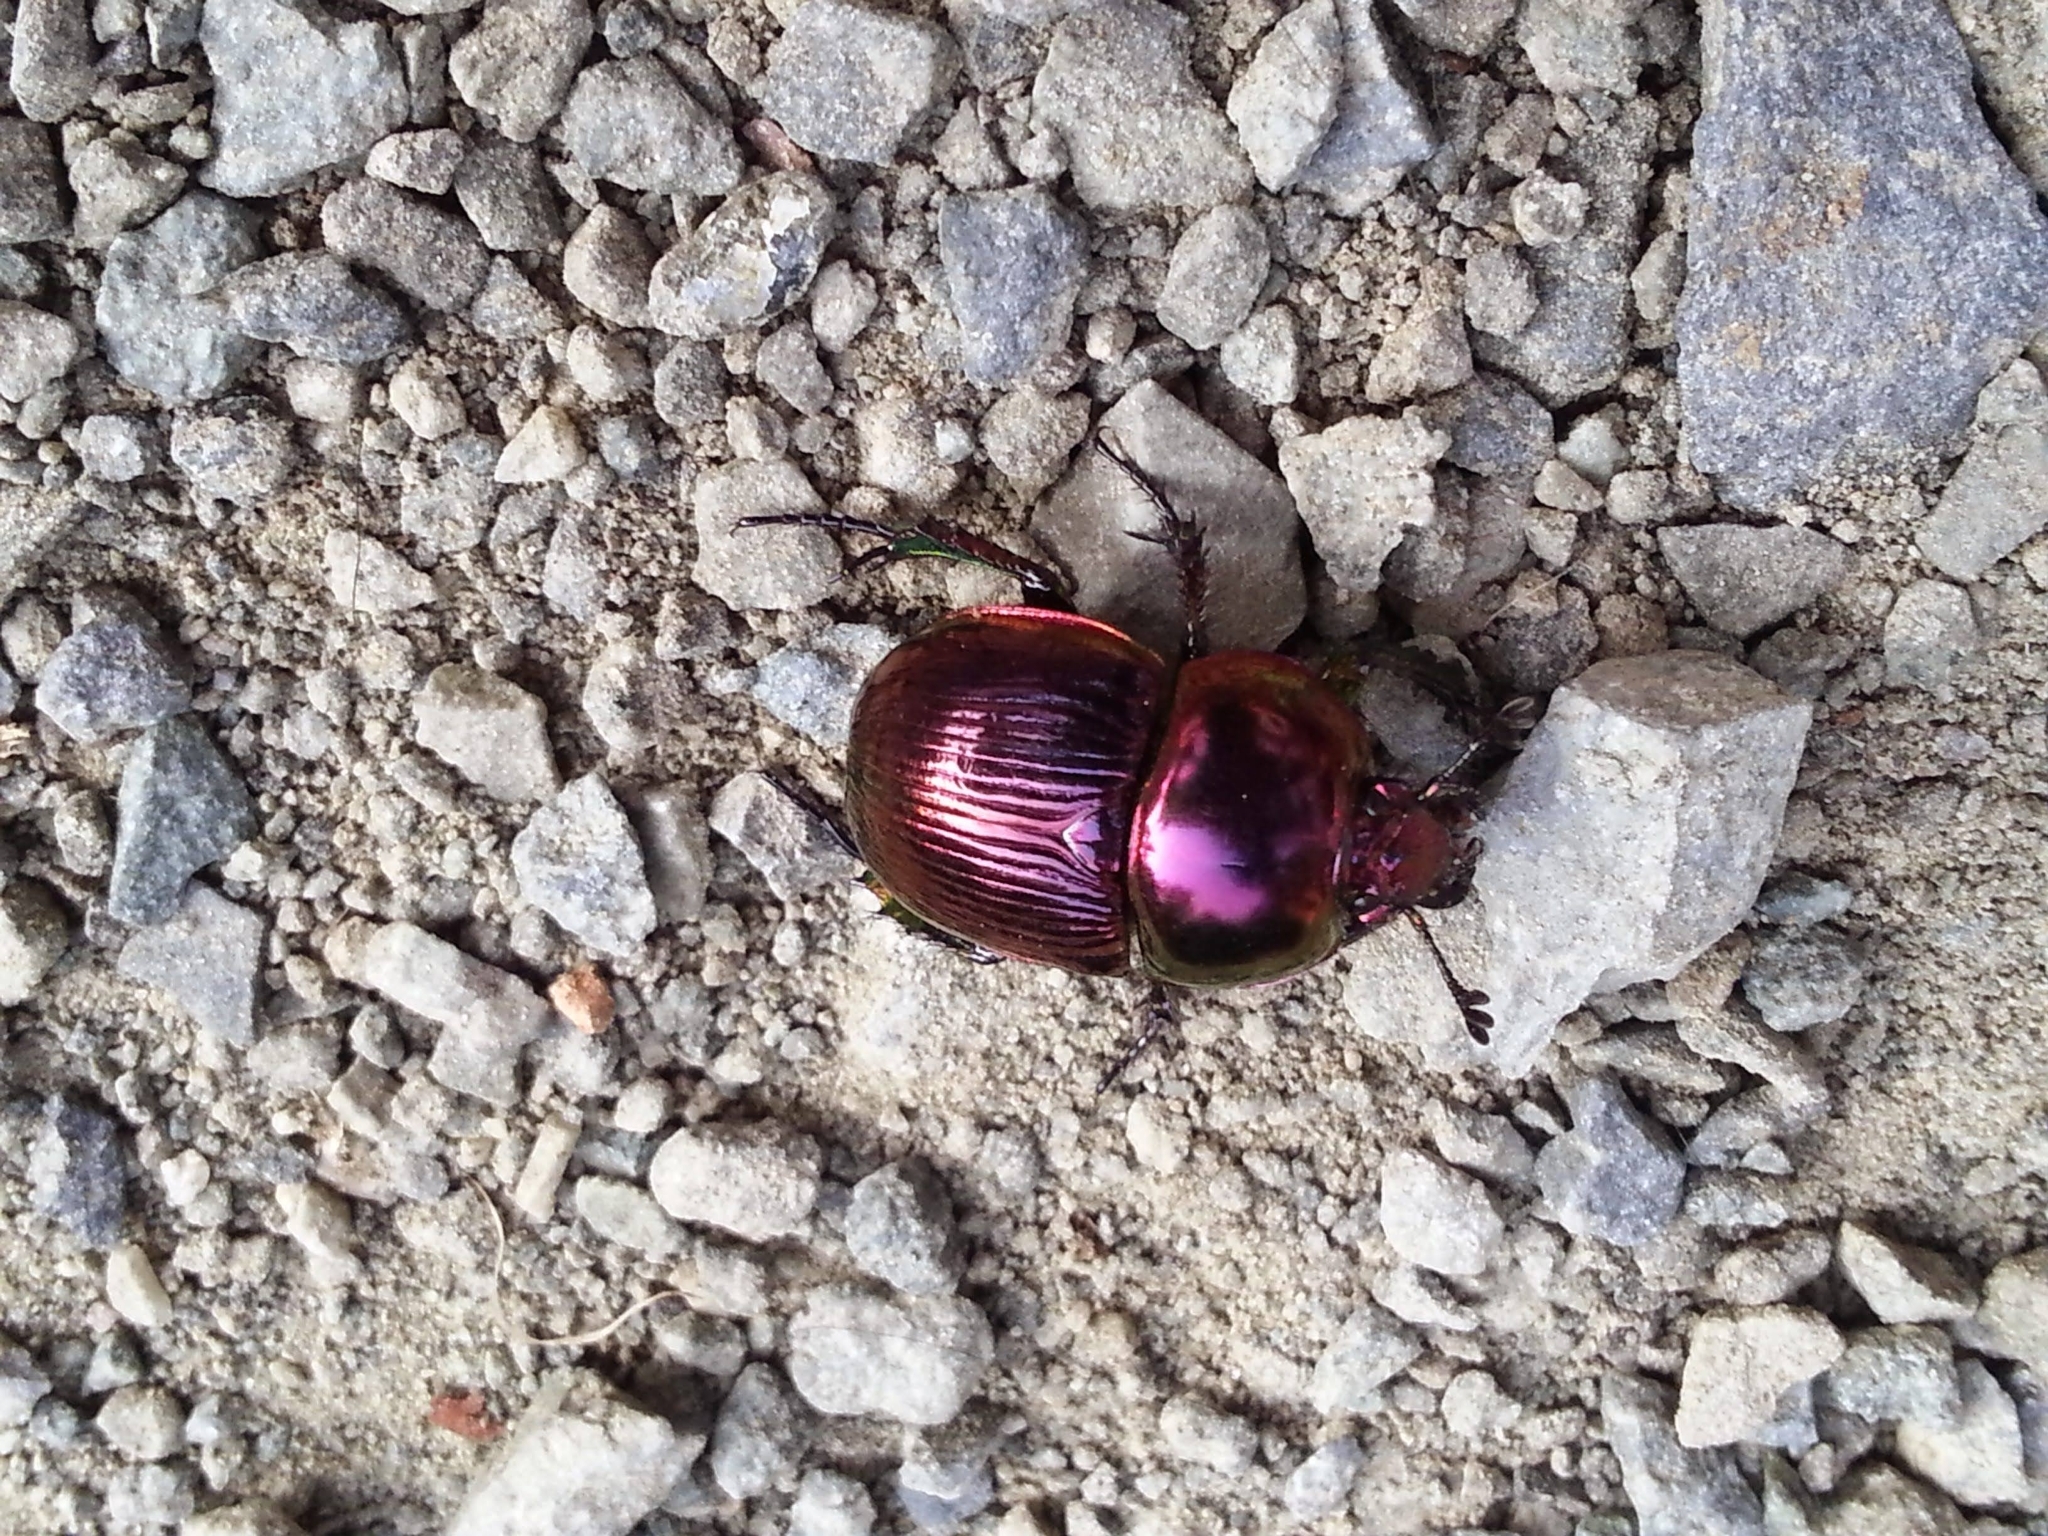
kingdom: Animalia
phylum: Arthropoda
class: Insecta
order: Coleoptera
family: Geotrupidae
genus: Phelotrupes
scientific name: Phelotrupes auratus
